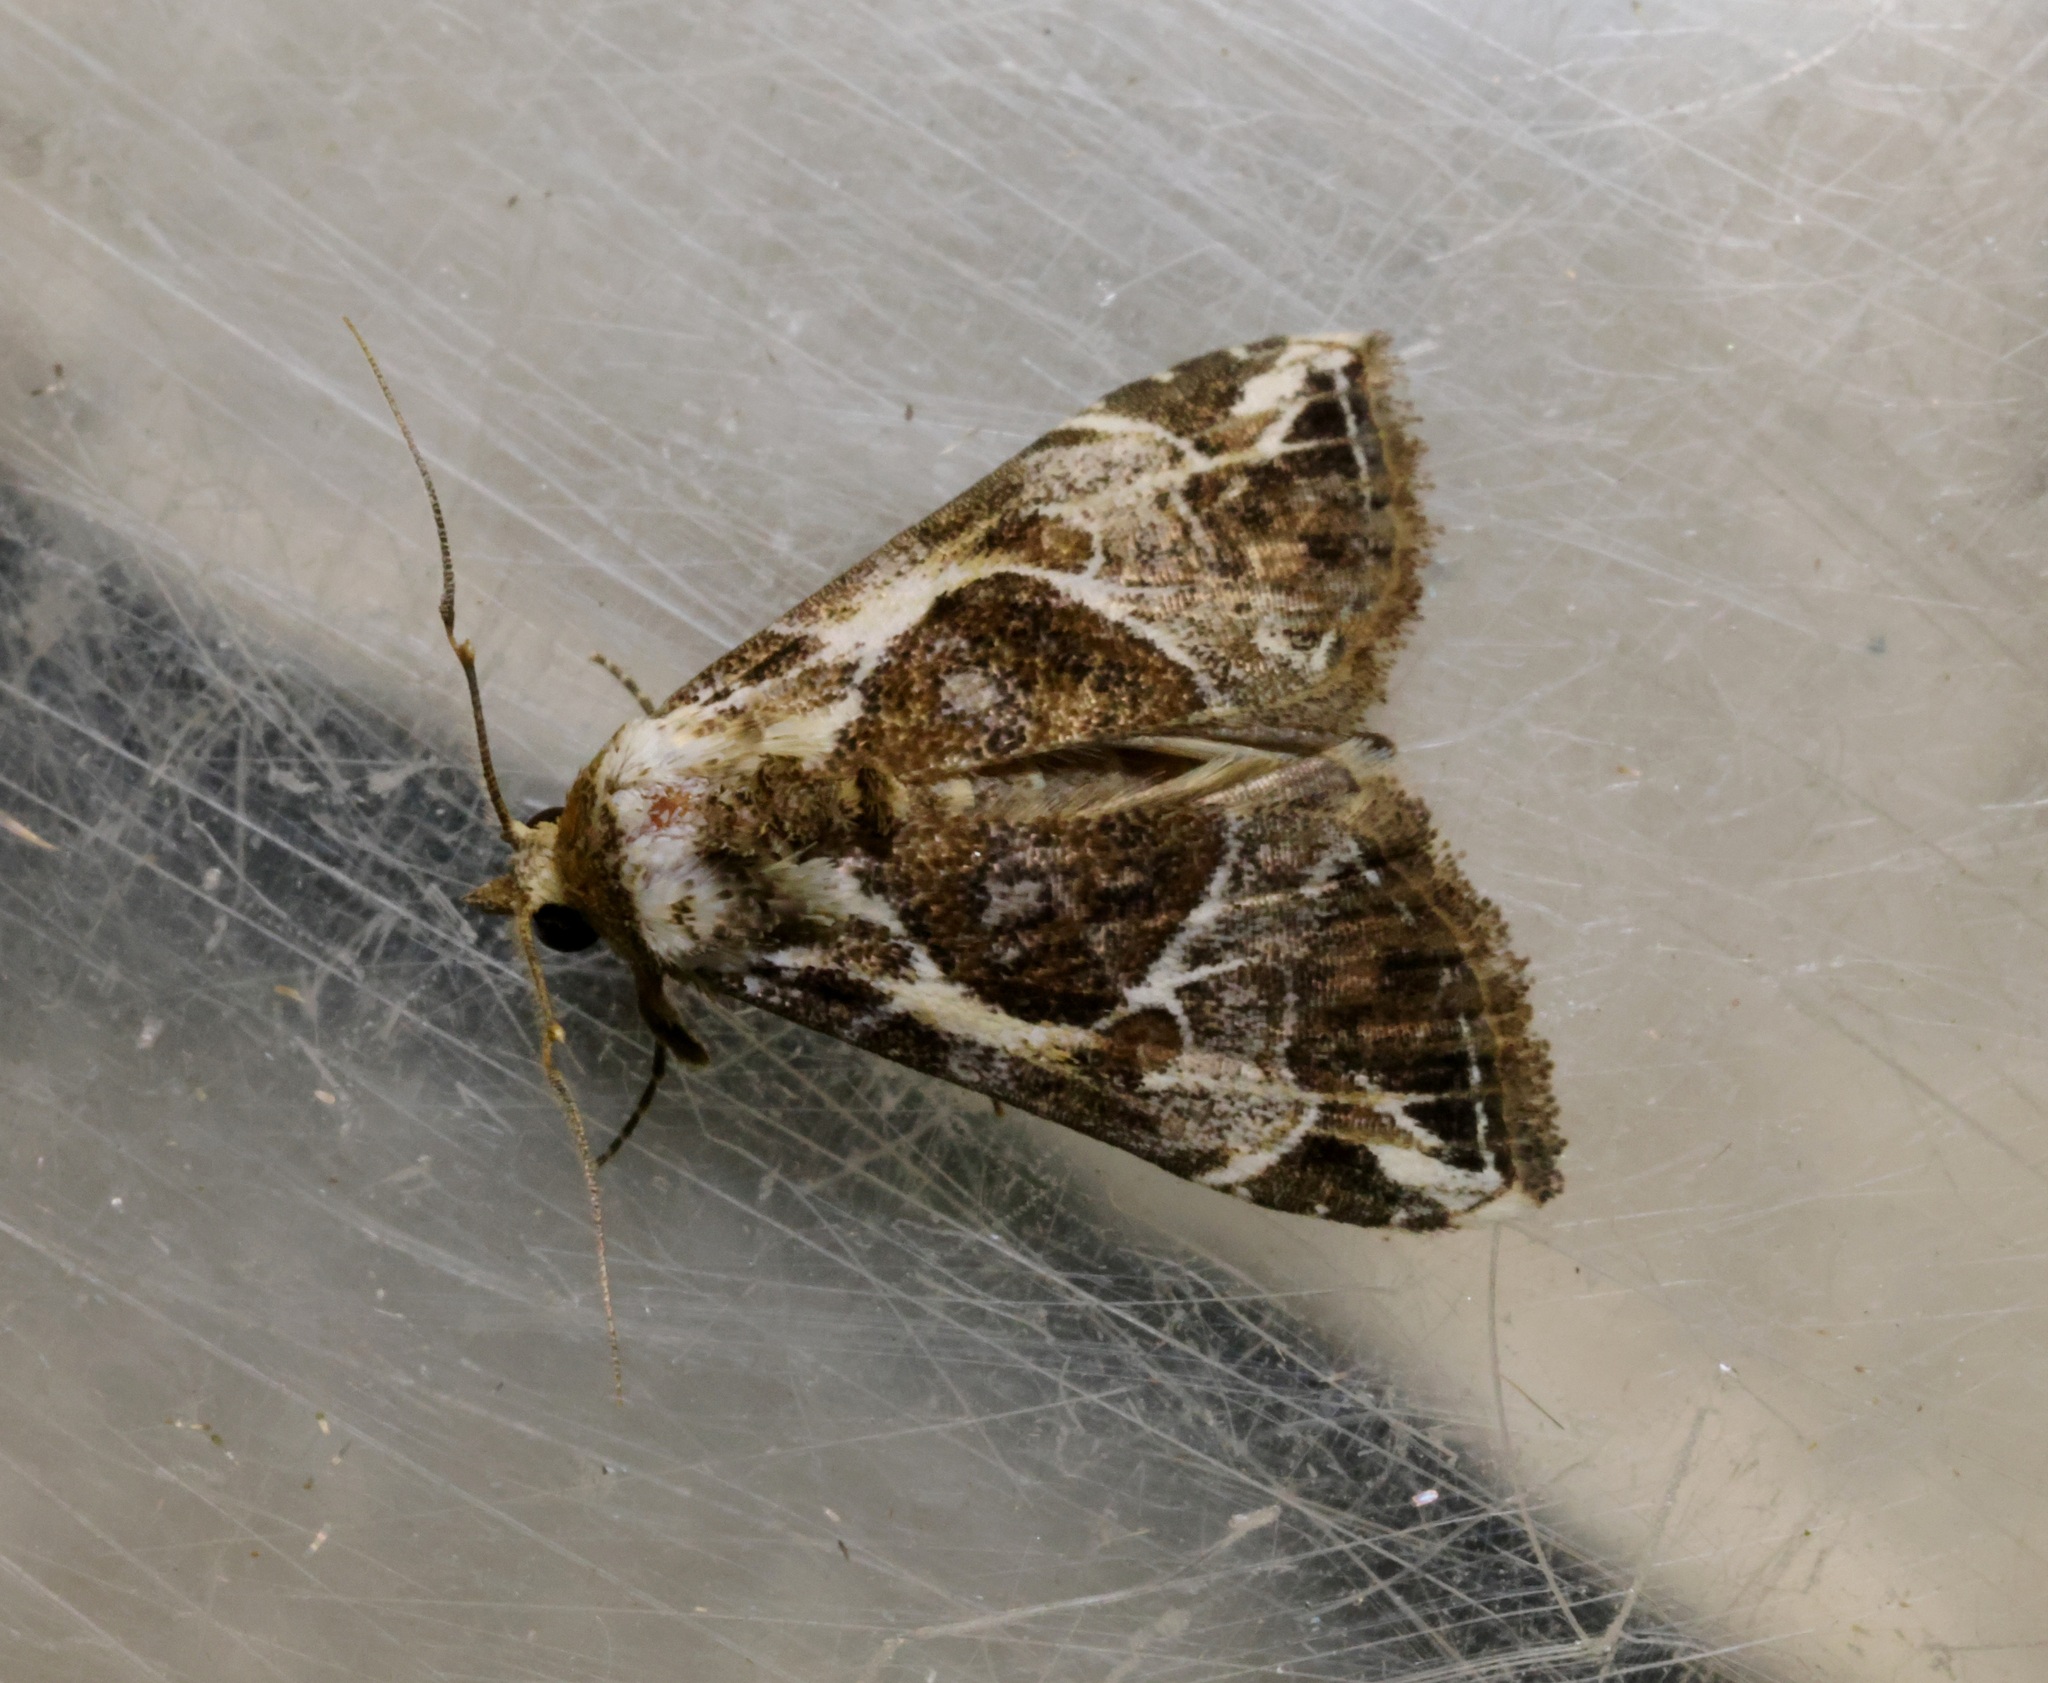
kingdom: Animalia
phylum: Arthropoda
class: Insecta
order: Lepidoptera
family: Erebidae
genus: Chorsia
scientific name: Chorsia albiscriptus
